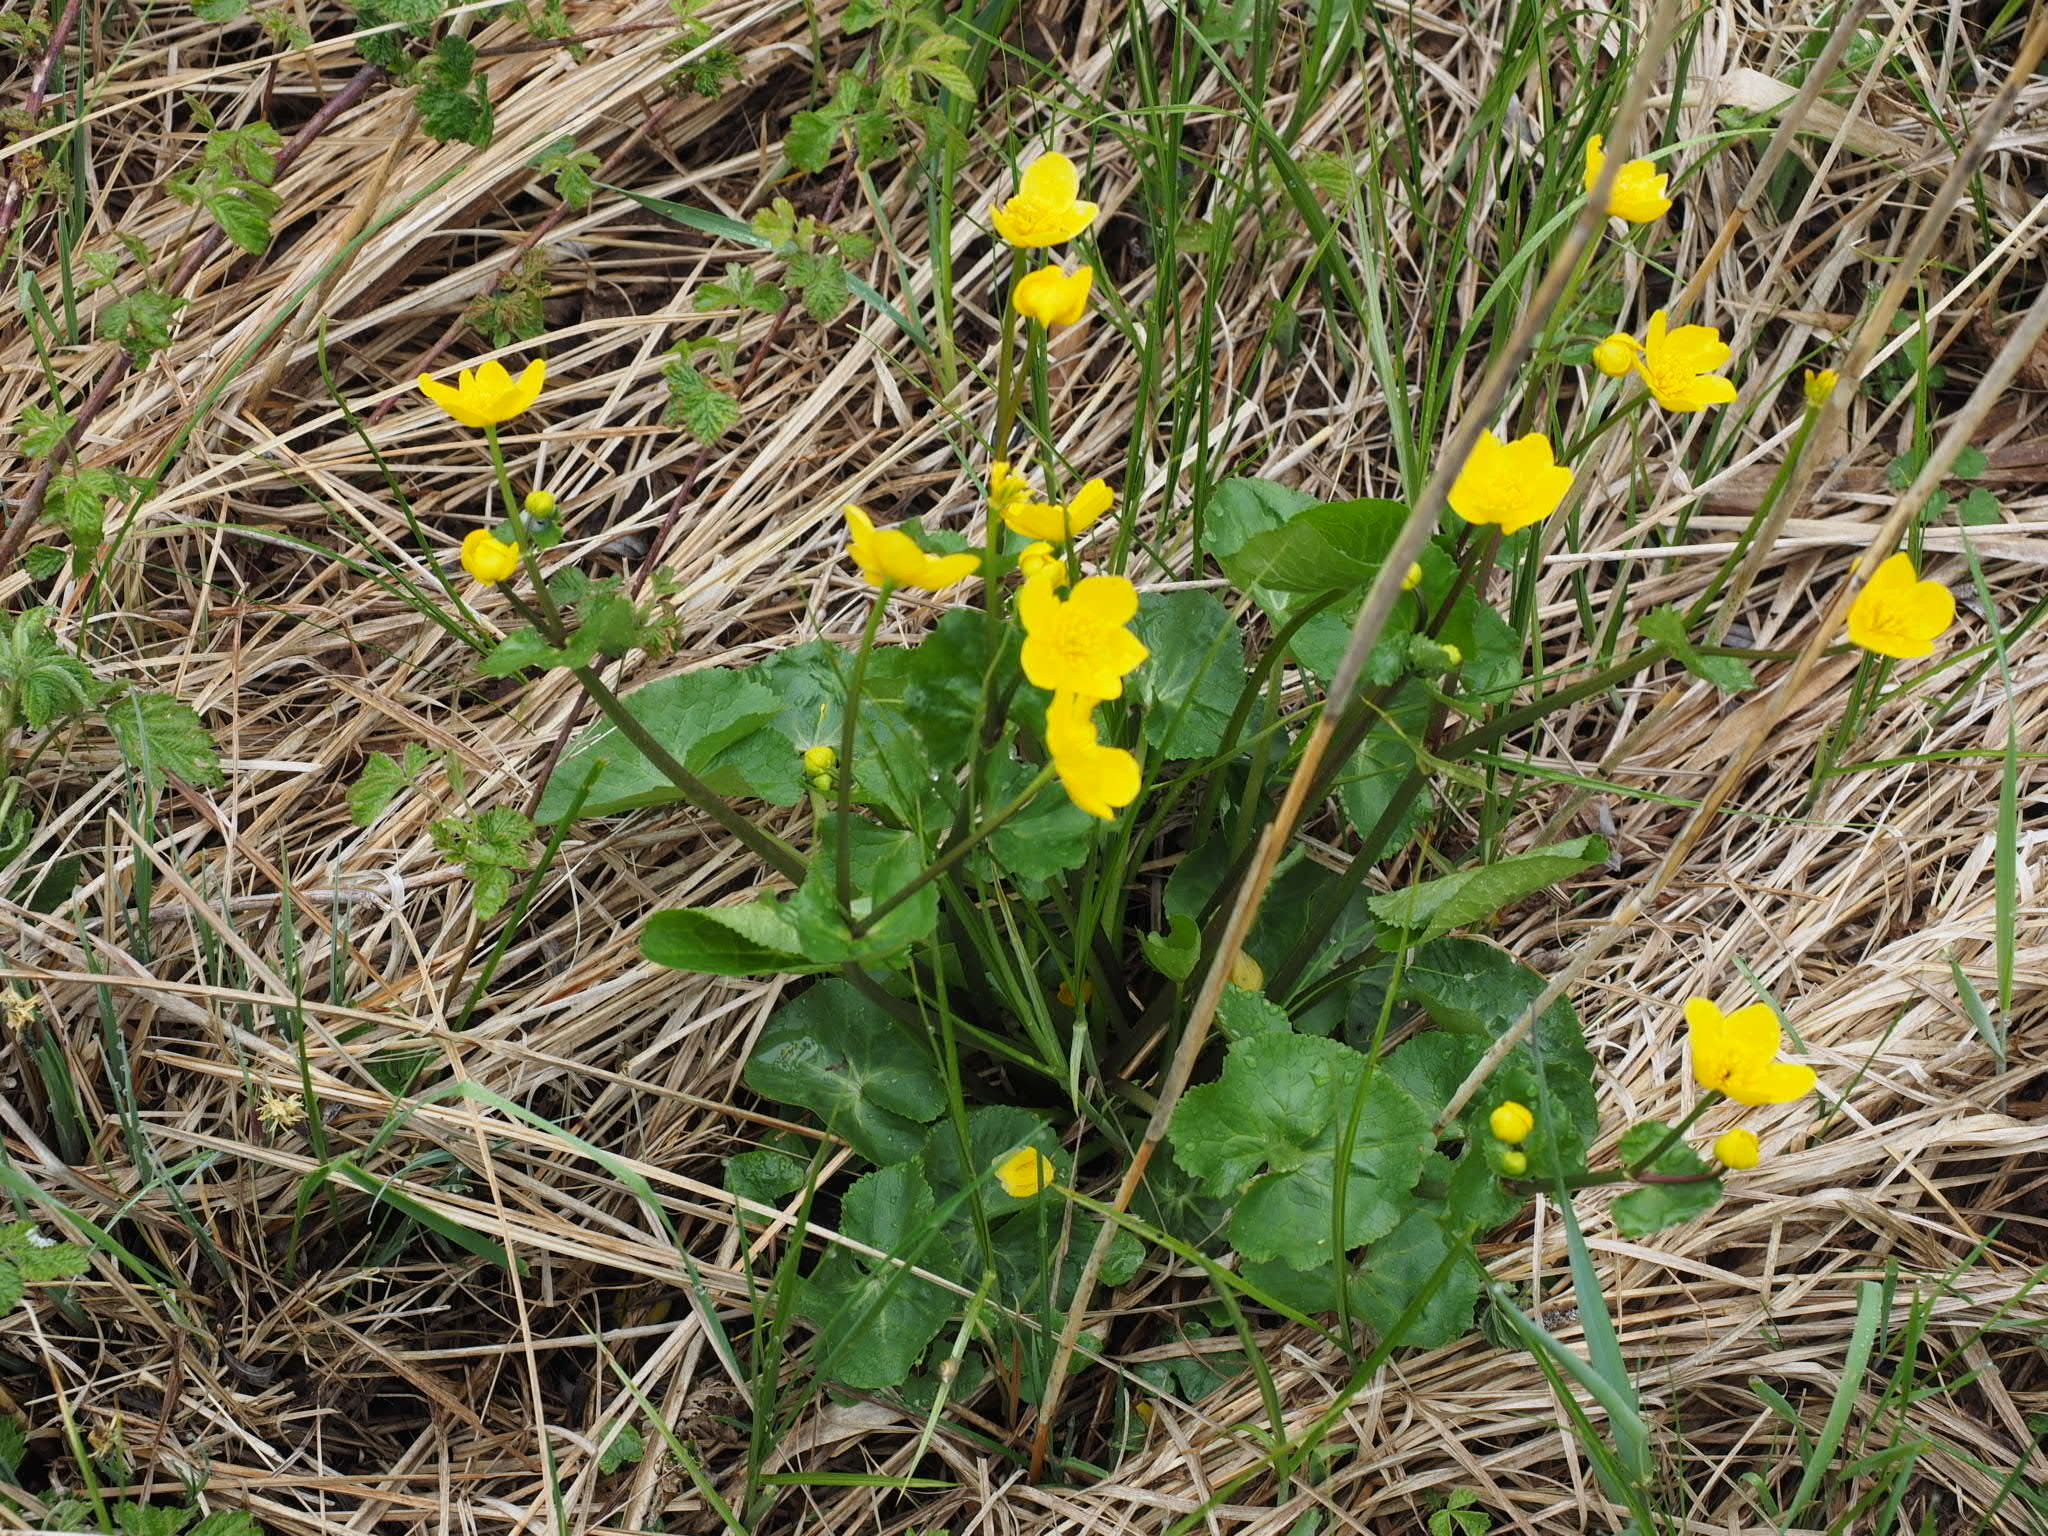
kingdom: Plantae
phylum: Tracheophyta
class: Magnoliopsida
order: Ranunculales
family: Ranunculaceae
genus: Caltha
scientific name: Caltha palustris
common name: Marsh marigold
